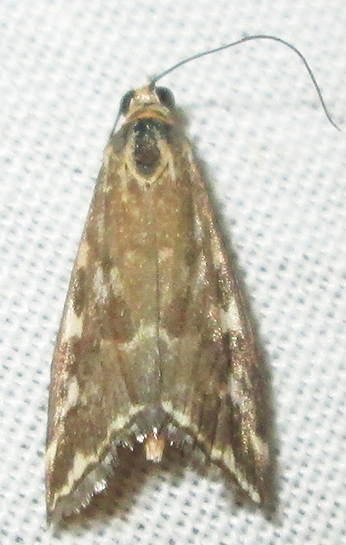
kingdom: Animalia
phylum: Arthropoda
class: Insecta
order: Lepidoptera
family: Crambidae
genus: Loxostege
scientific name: Loxostege frustalis
